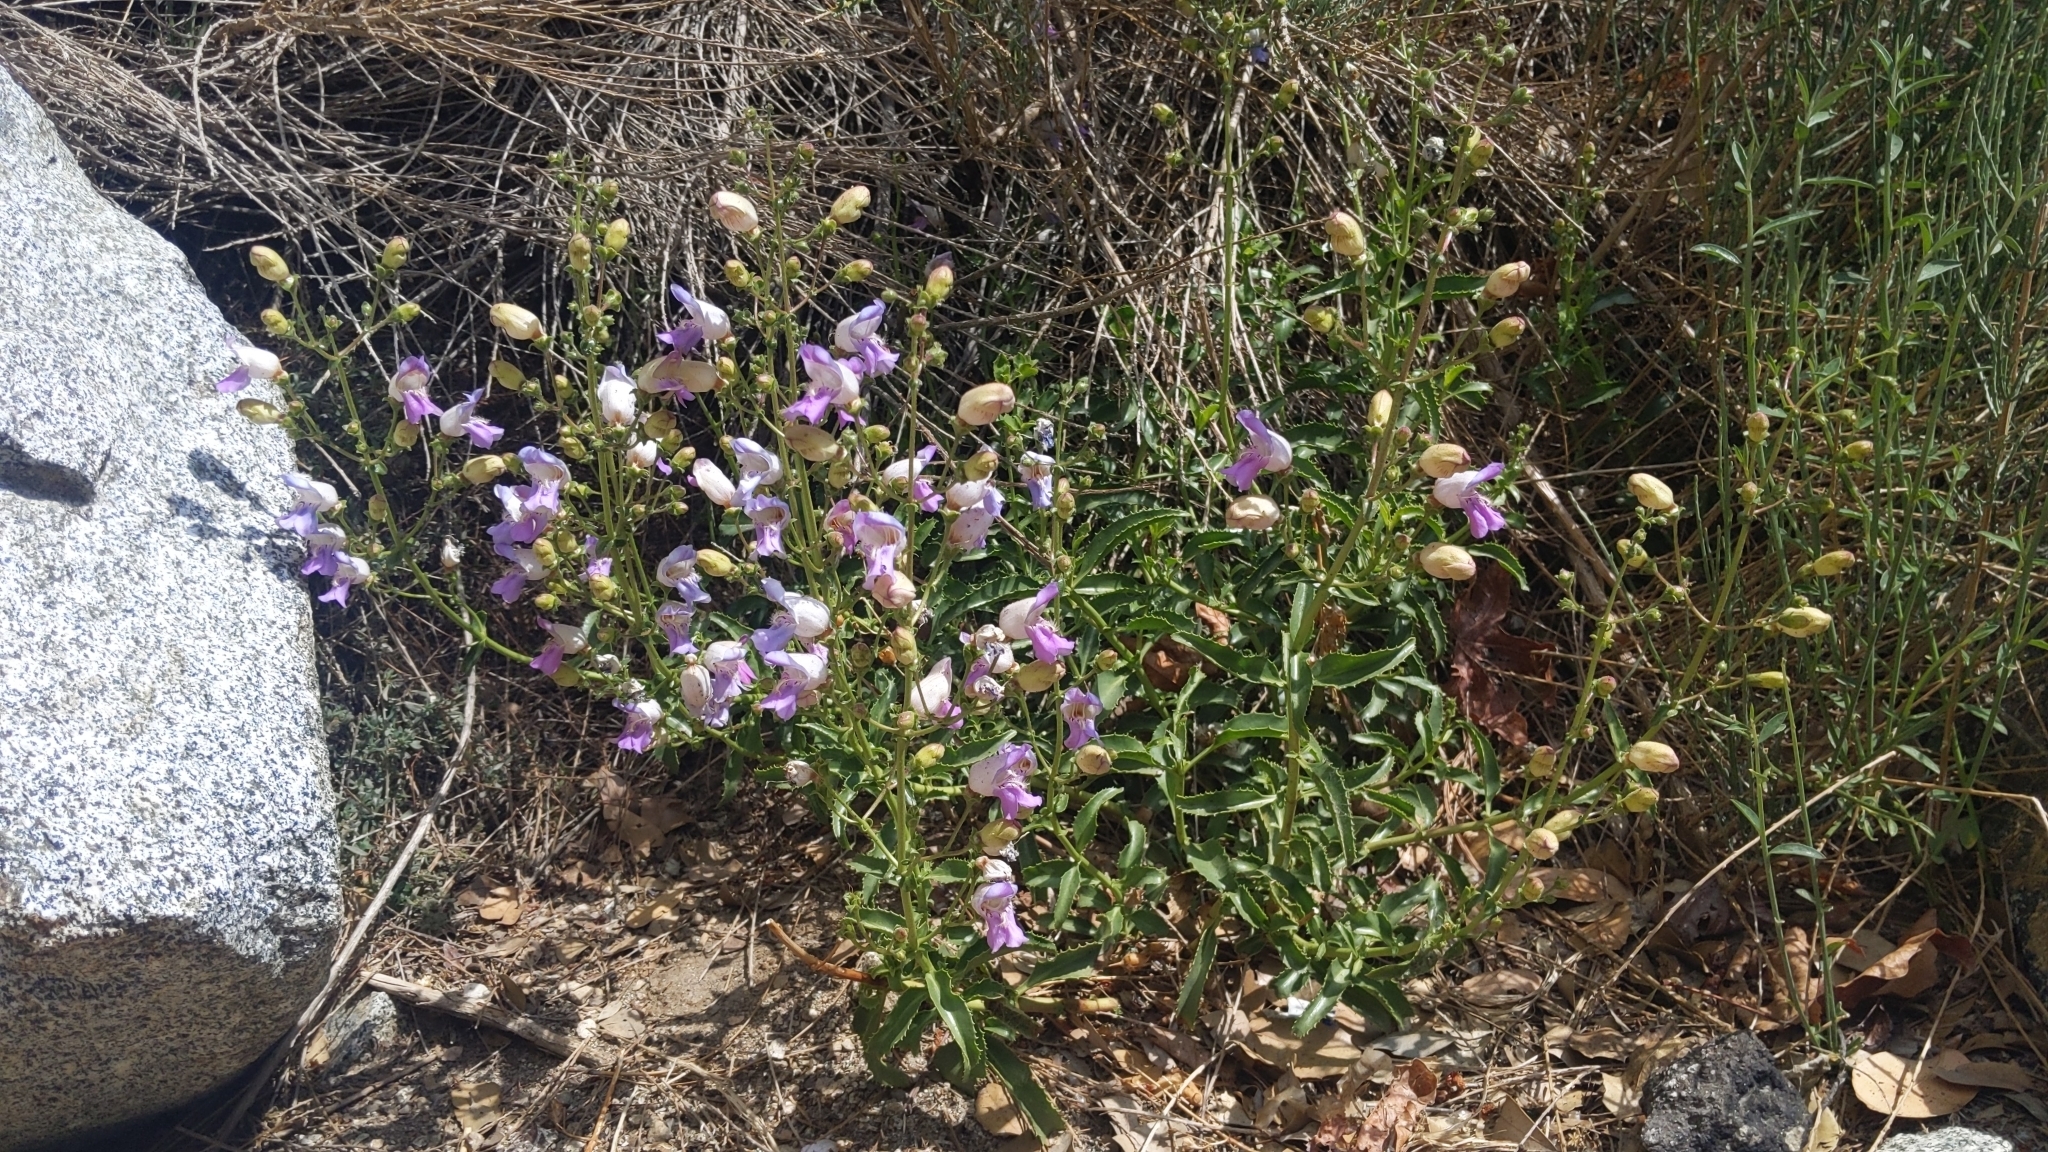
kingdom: Plantae
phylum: Tracheophyta
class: Magnoliopsida
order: Lamiales
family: Plantaginaceae
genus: Penstemon
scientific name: Penstemon grinnellii
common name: Grinnell's beardtongue
